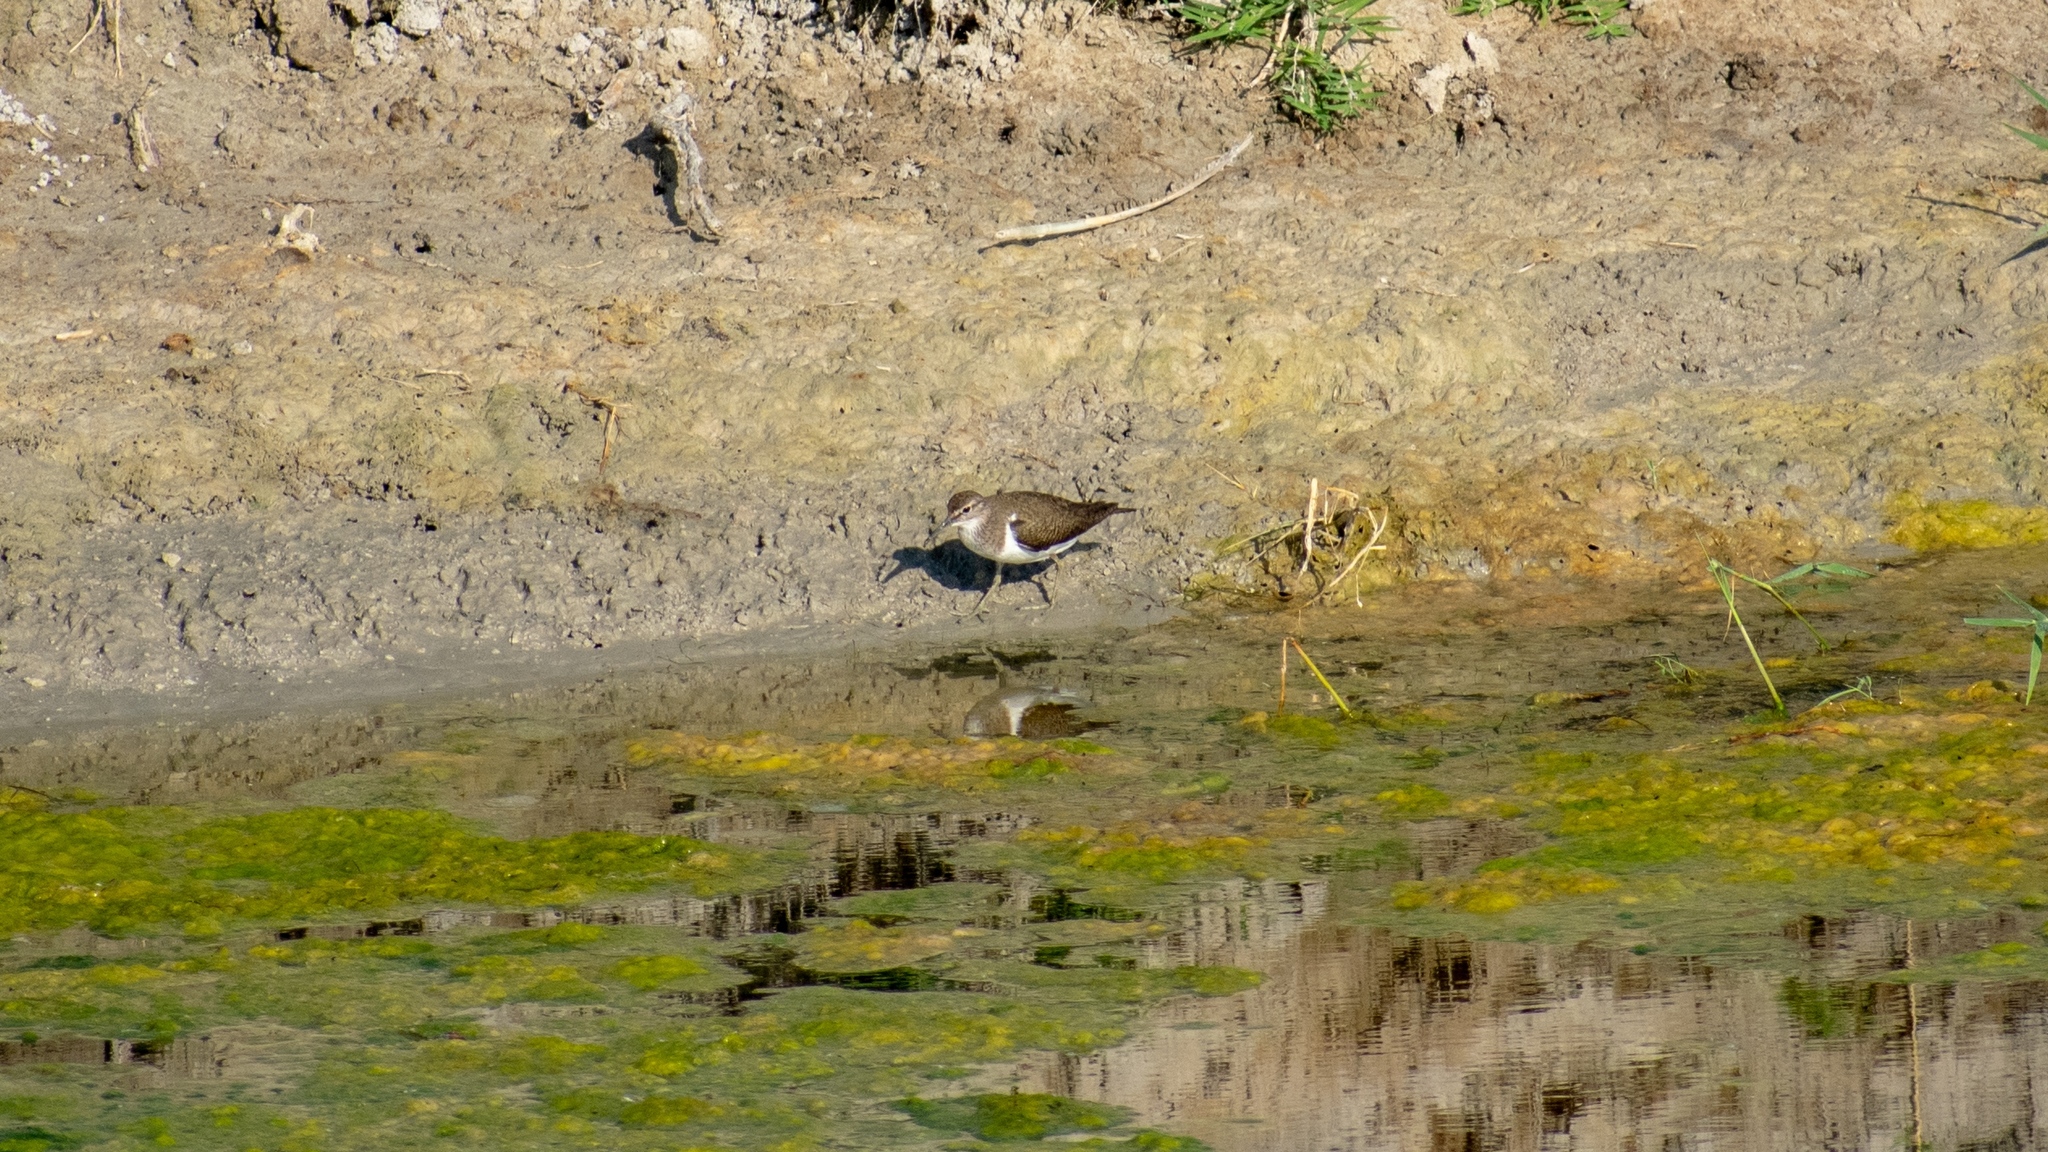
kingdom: Animalia
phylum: Chordata
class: Aves
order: Charadriiformes
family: Scolopacidae
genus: Actitis
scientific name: Actitis hypoleucos
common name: Common sandpiper
